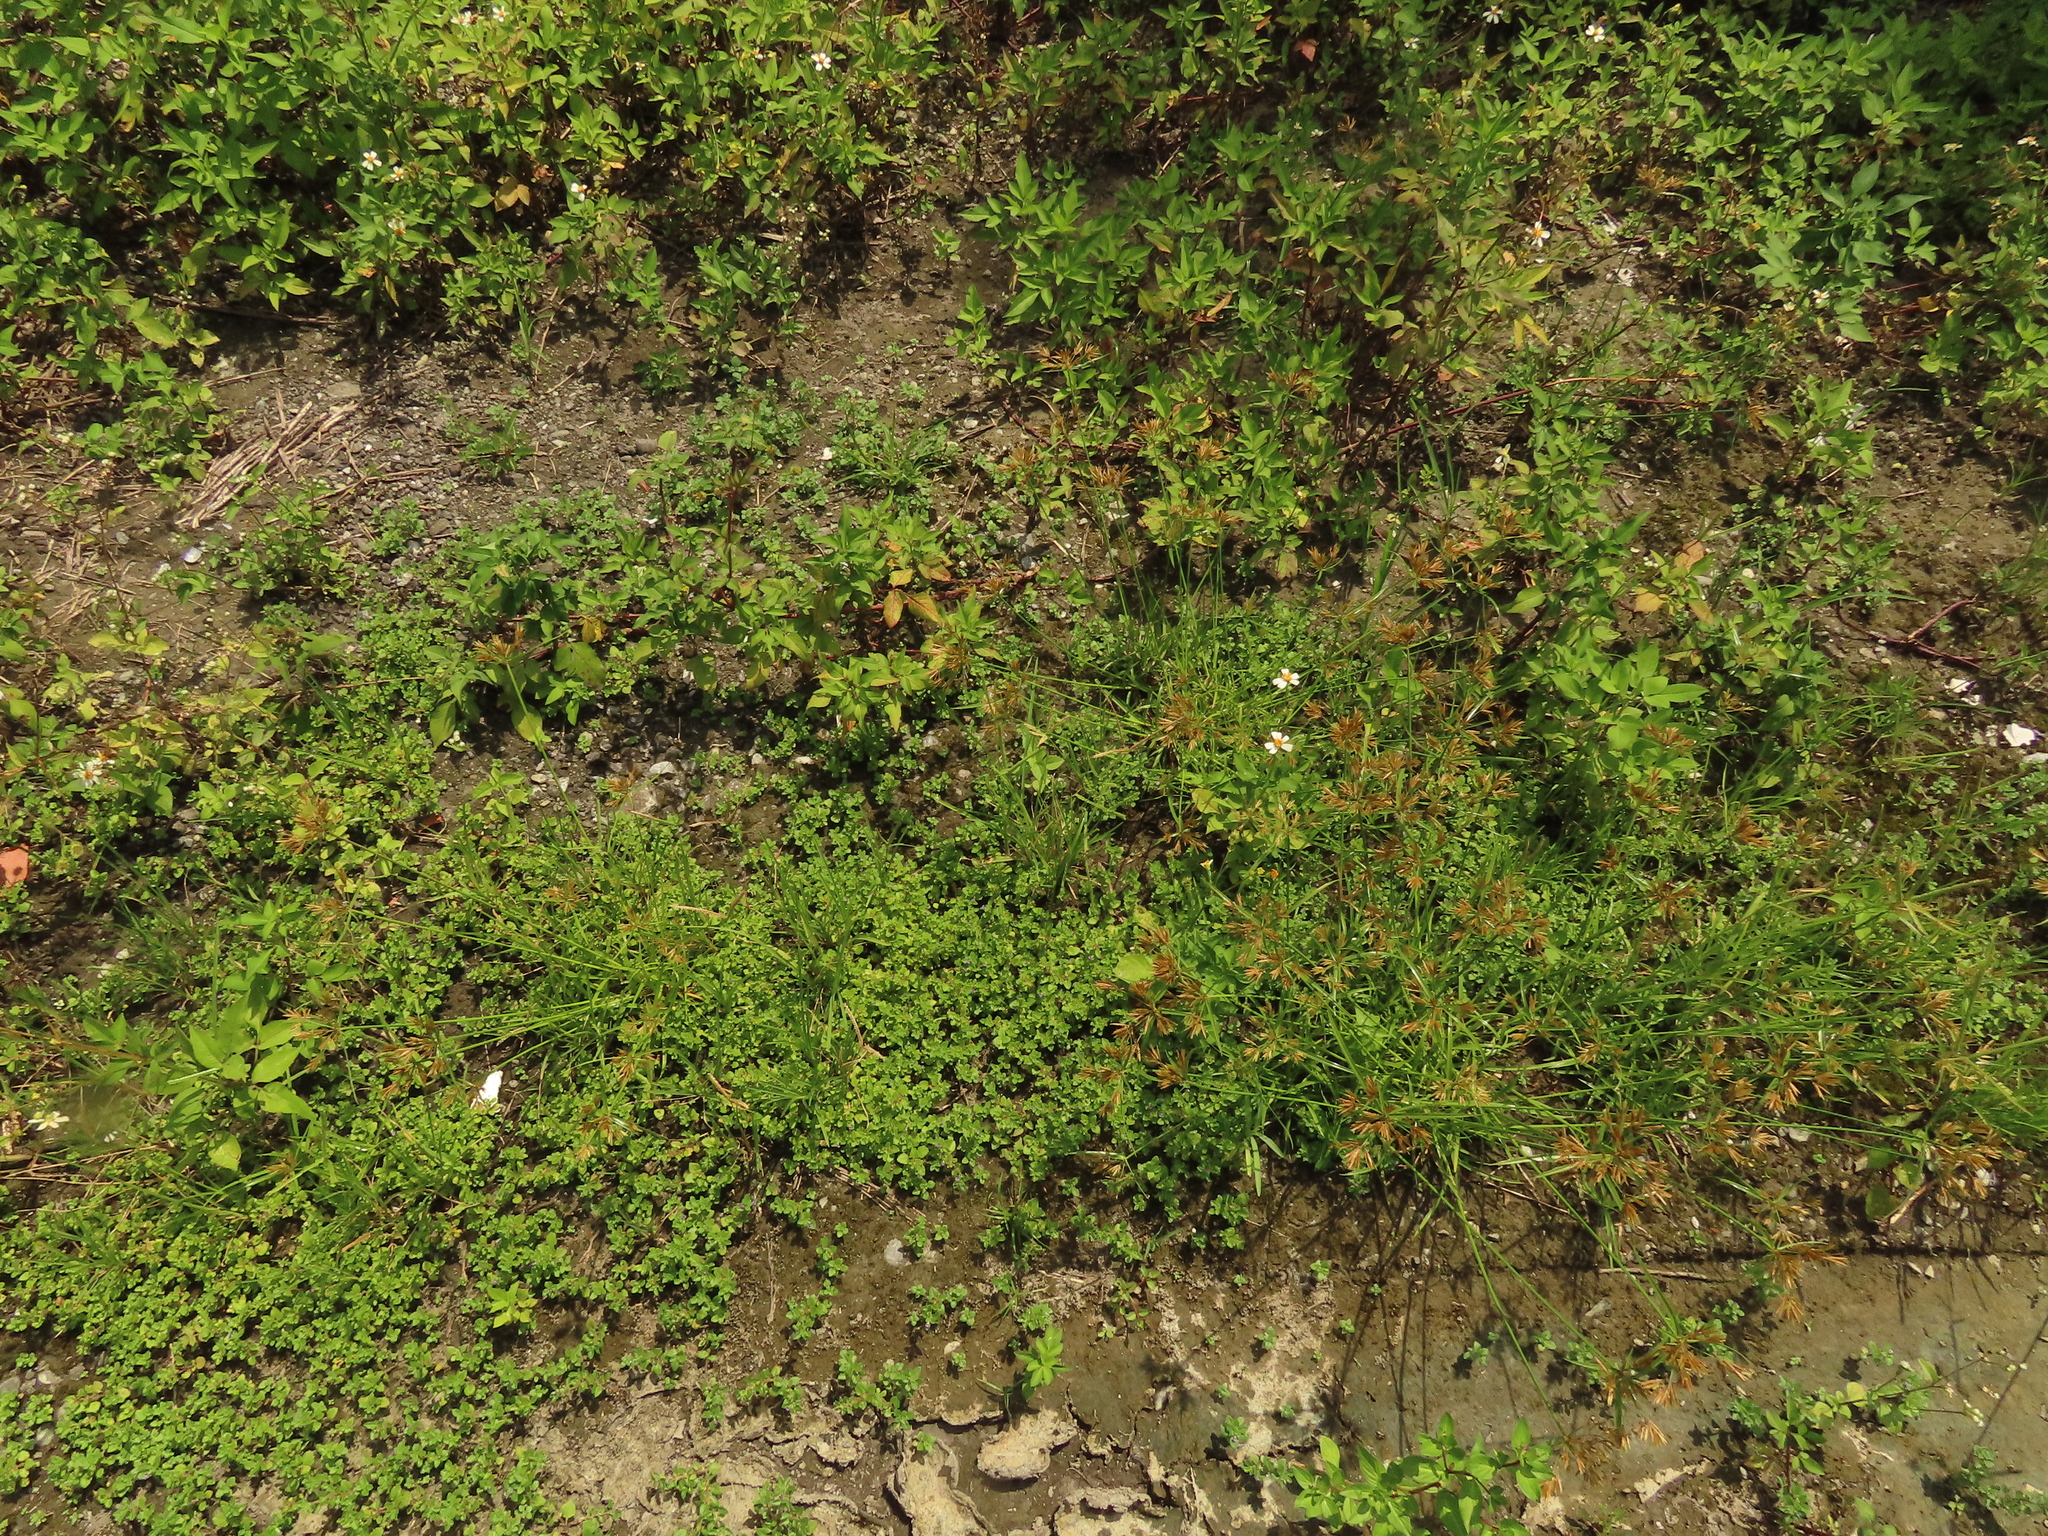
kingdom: Plantae
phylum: Tracheophyta
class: Magnoliopsida
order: Lamiales
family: Plantaginaceae
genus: Mecardonia
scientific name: Mecardonia procumbens
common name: Baby jump-up
